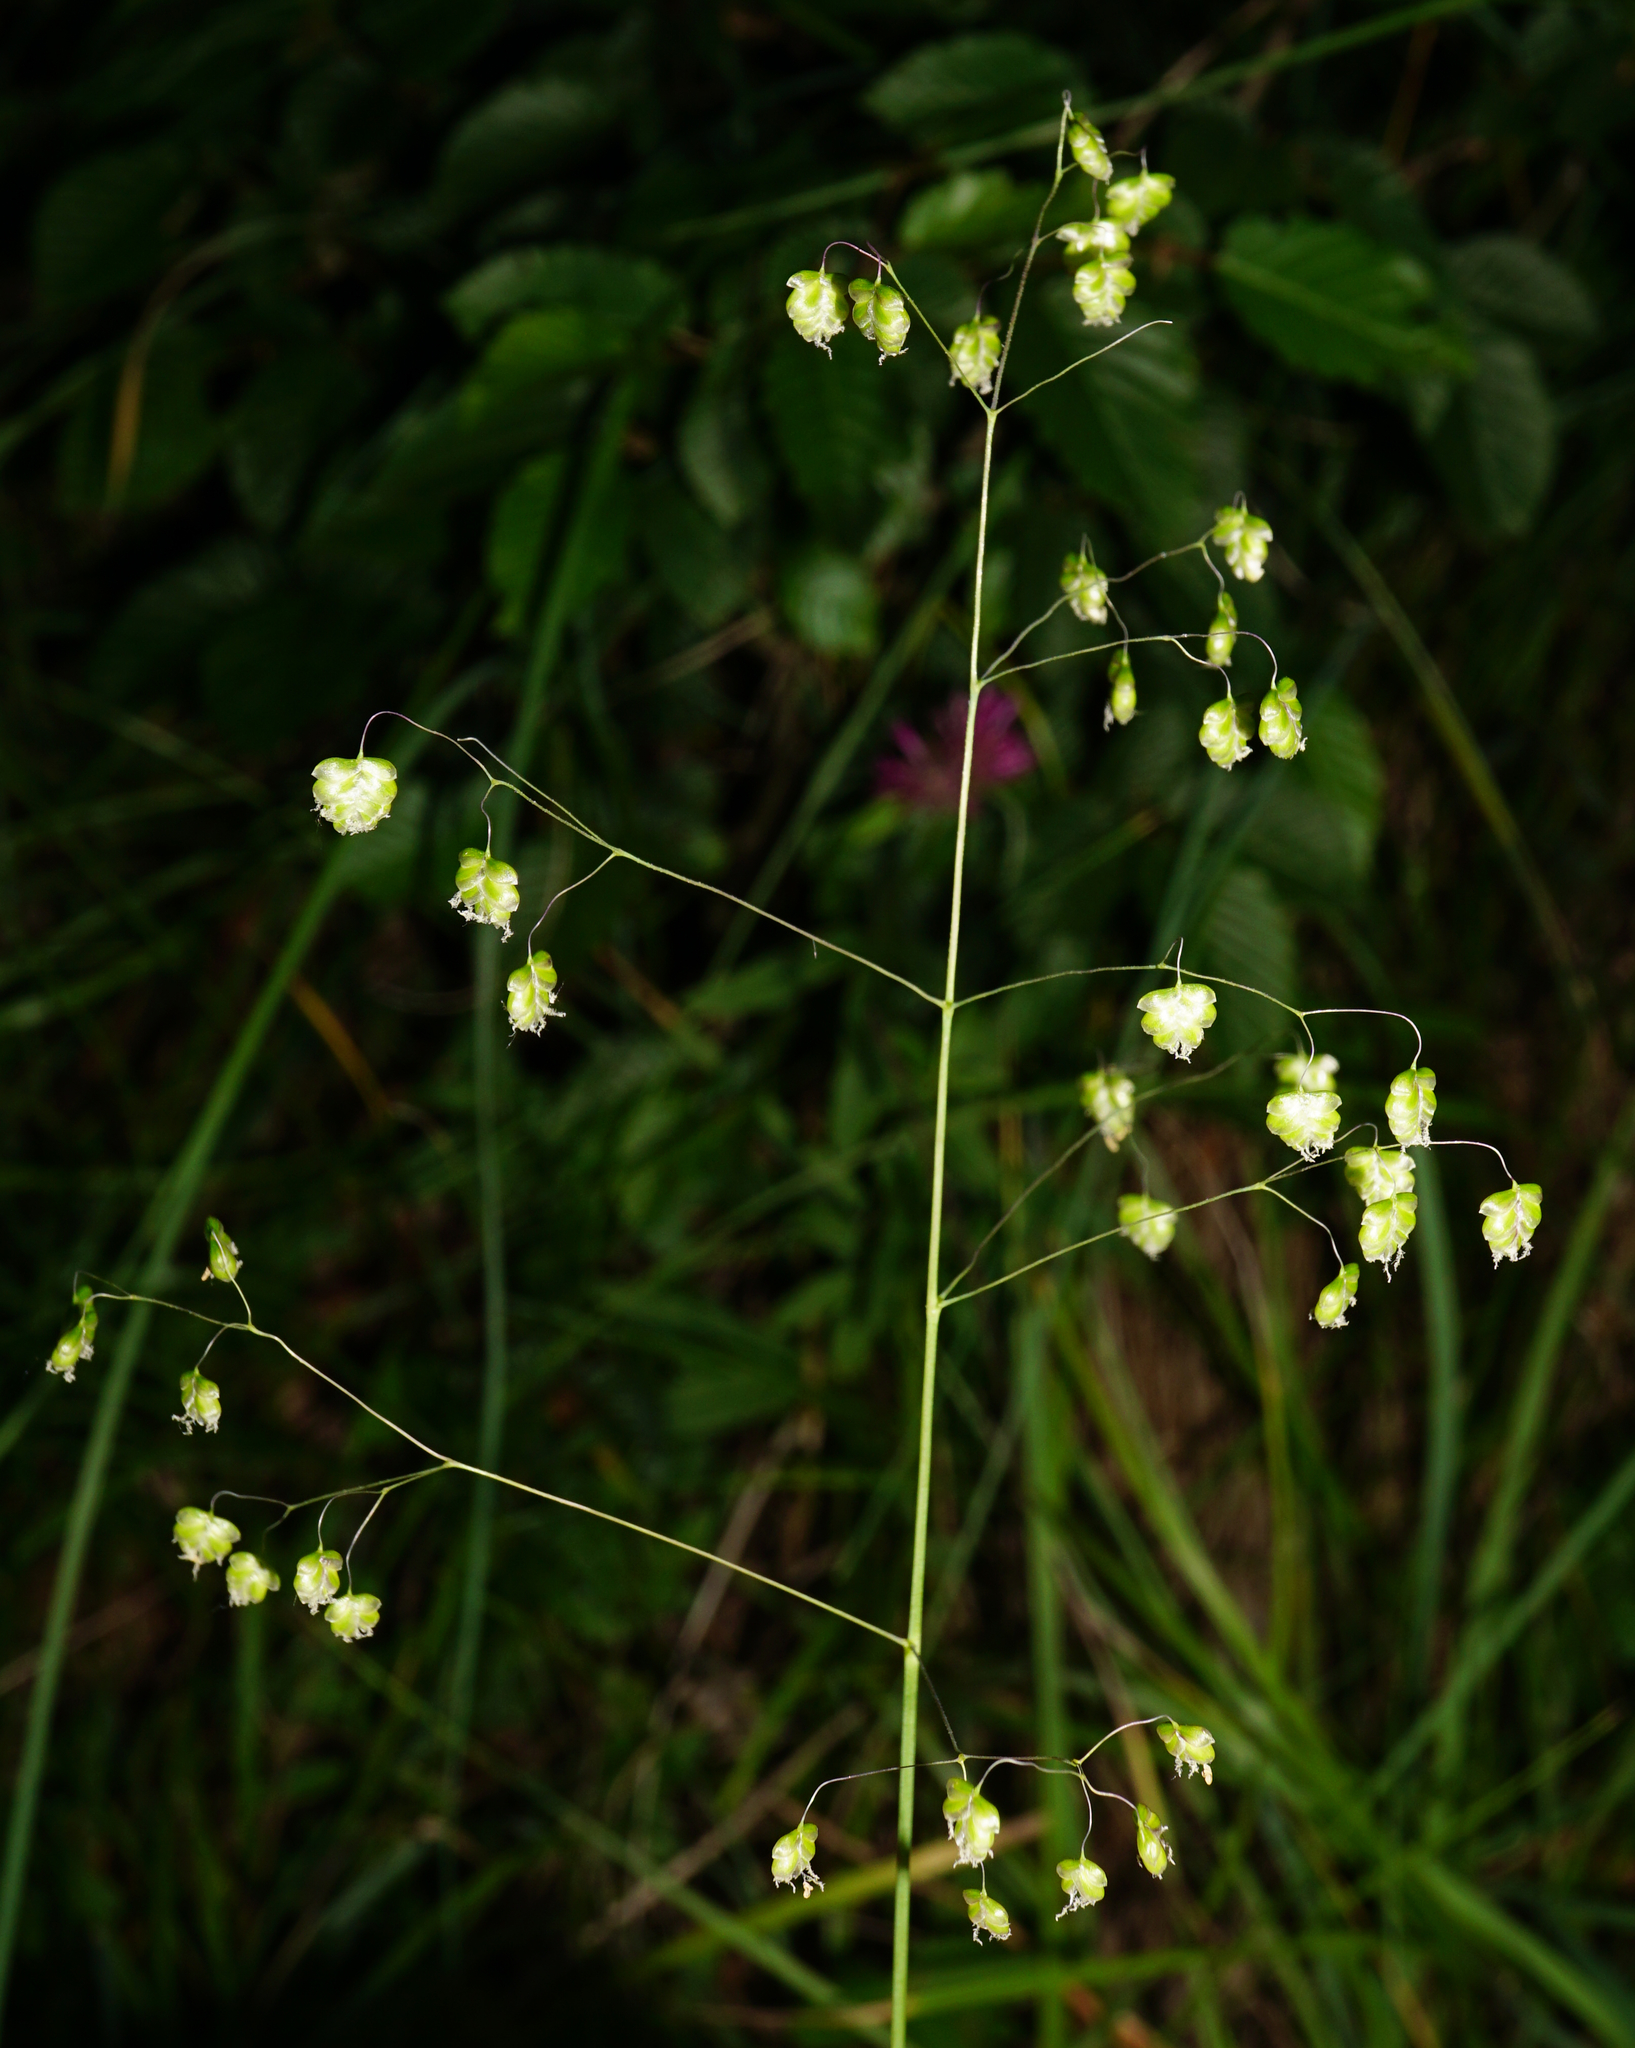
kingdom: Plantae
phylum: Tracheophyta
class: Liliopsida
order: Poales
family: Poaceae
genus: Briza
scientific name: Briza media
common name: Quaking grass
